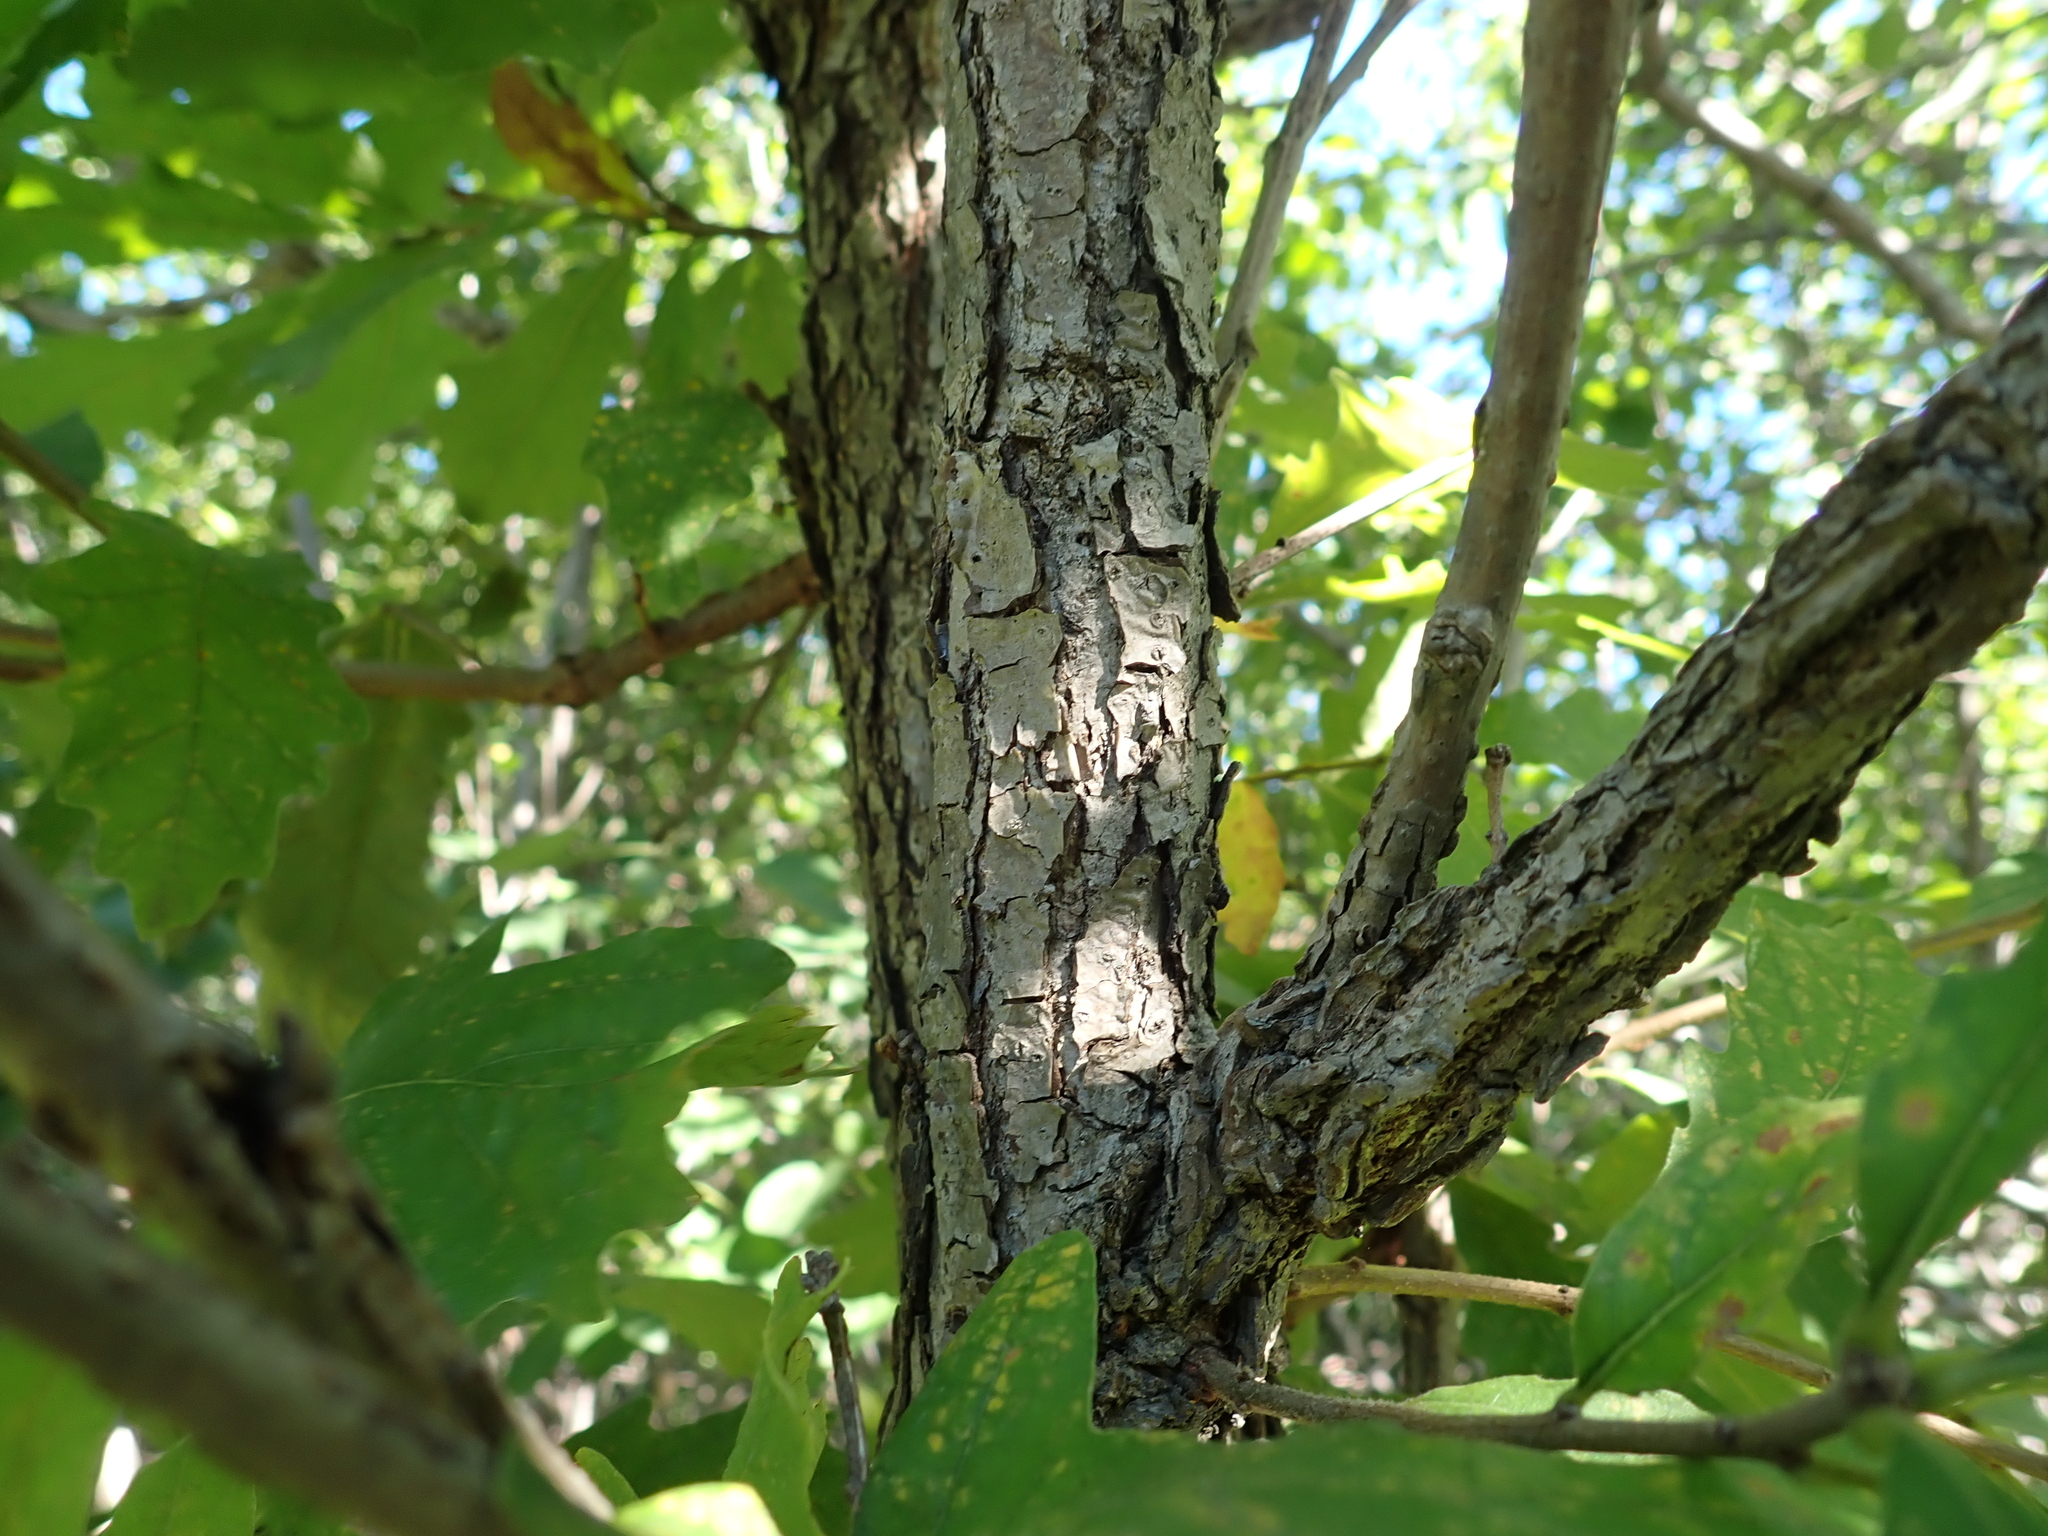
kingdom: Plantae
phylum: Tracheophyta
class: Magnoliopsida
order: Fagales
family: Fagaceae
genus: Quercus
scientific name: Quercus macrocarpa
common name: Bur oak
